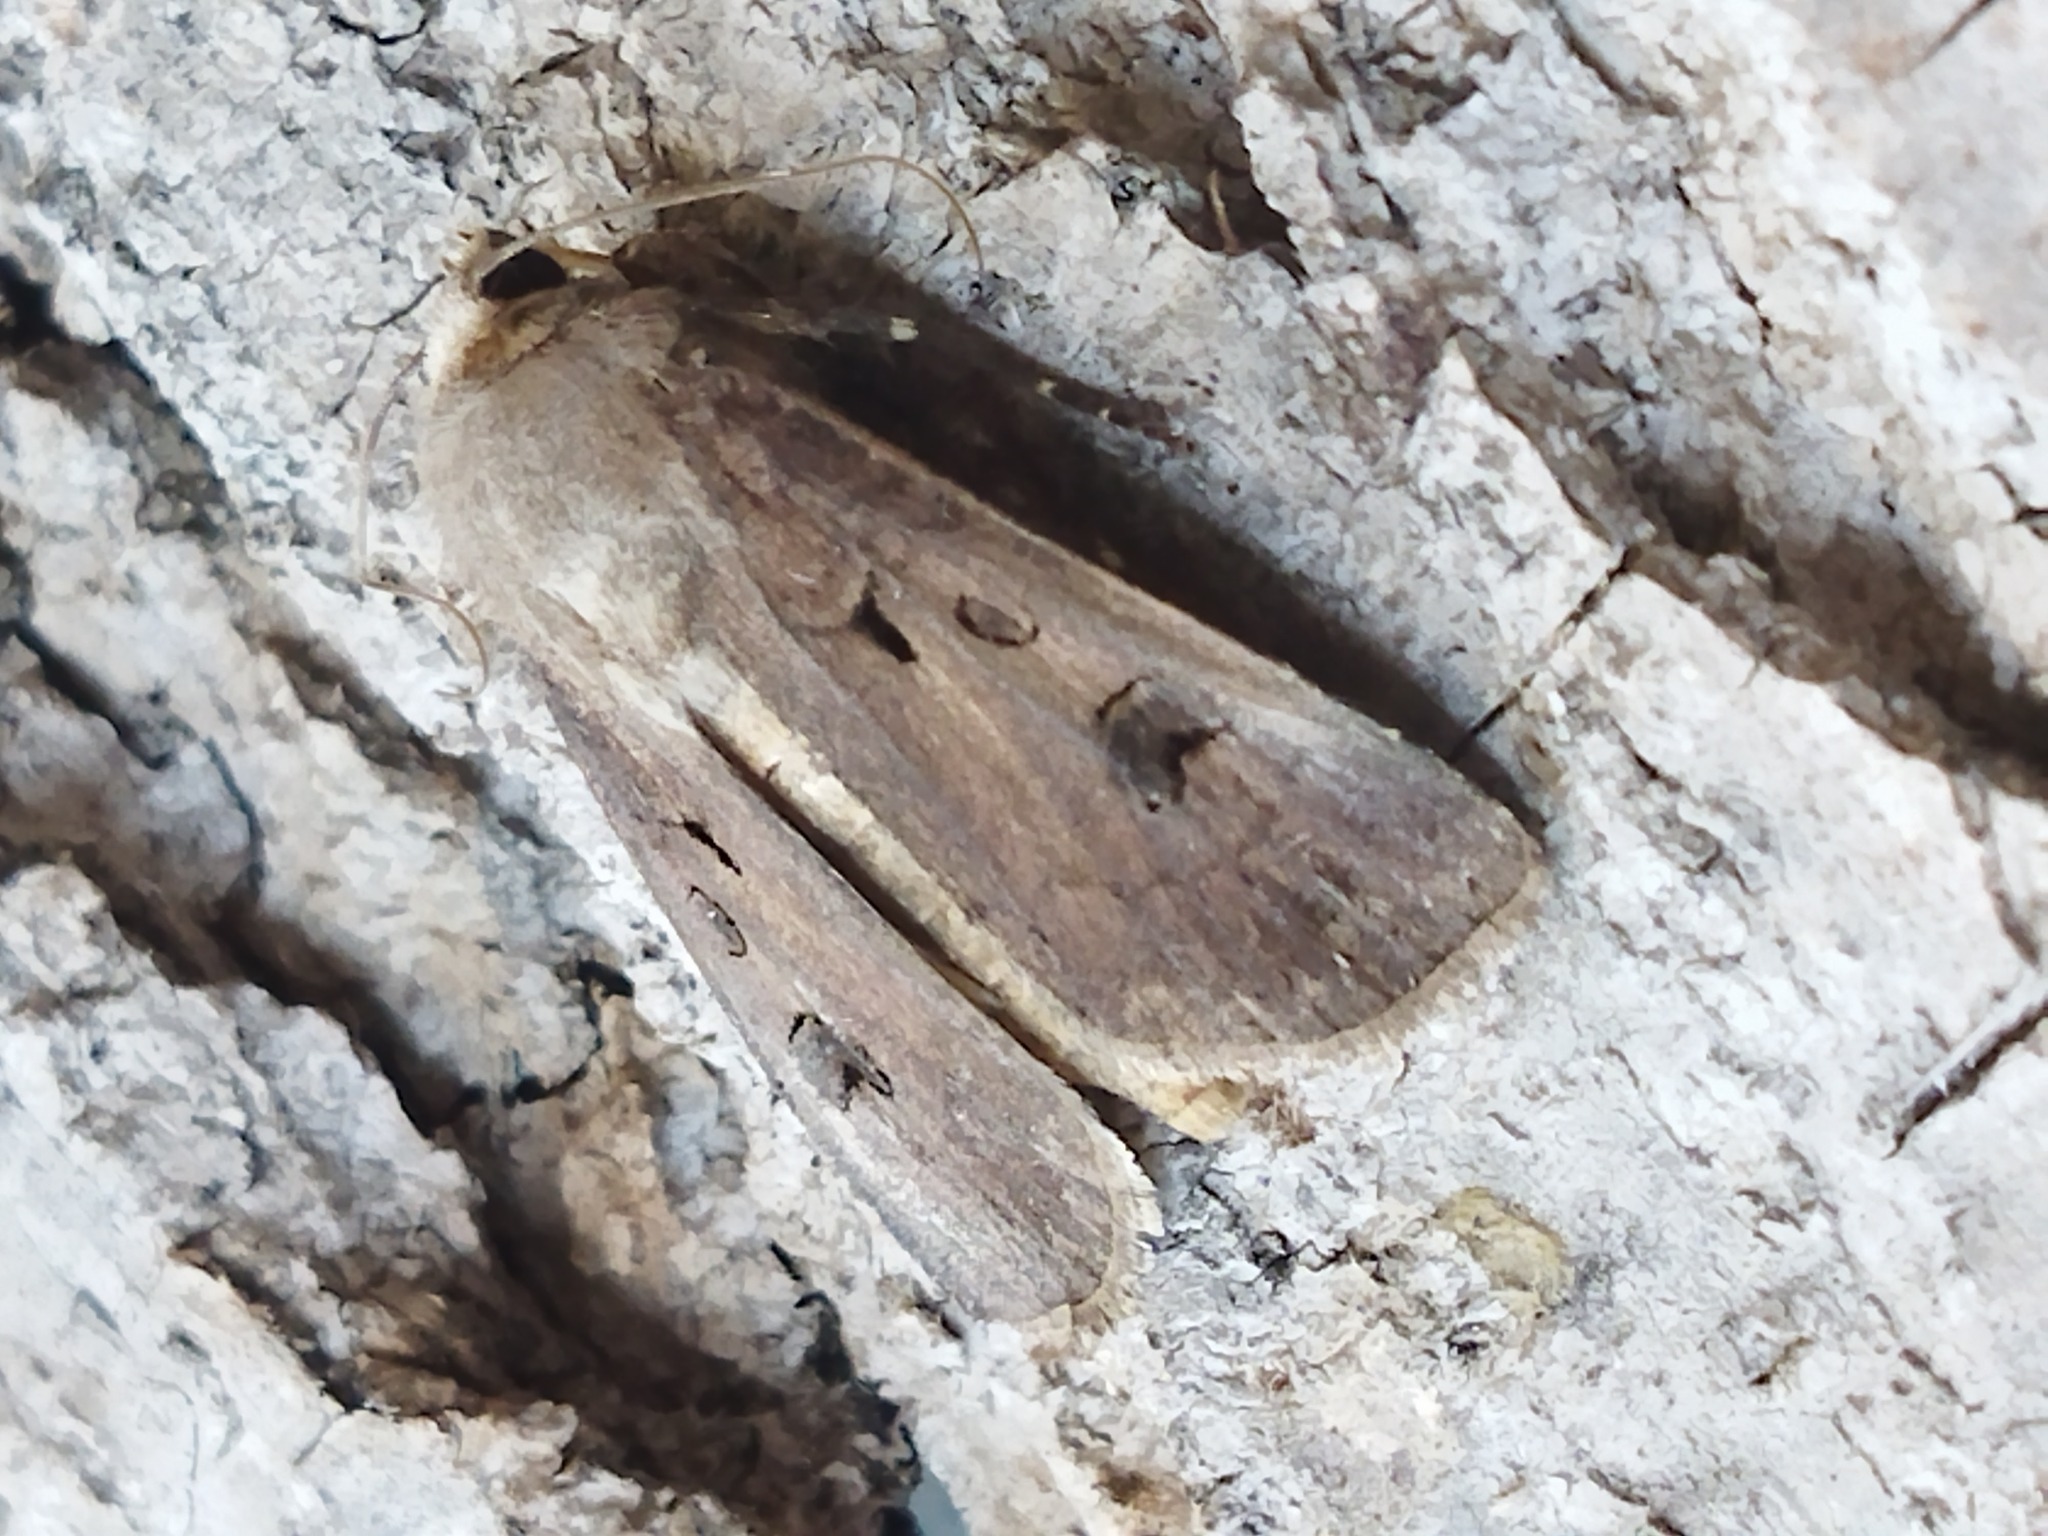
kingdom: Animalia
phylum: Arthropoda
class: Insecta
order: Lepidoptera
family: Noctuidae
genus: Agrotis
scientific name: Agrotis exclamationis
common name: Heart and dart
